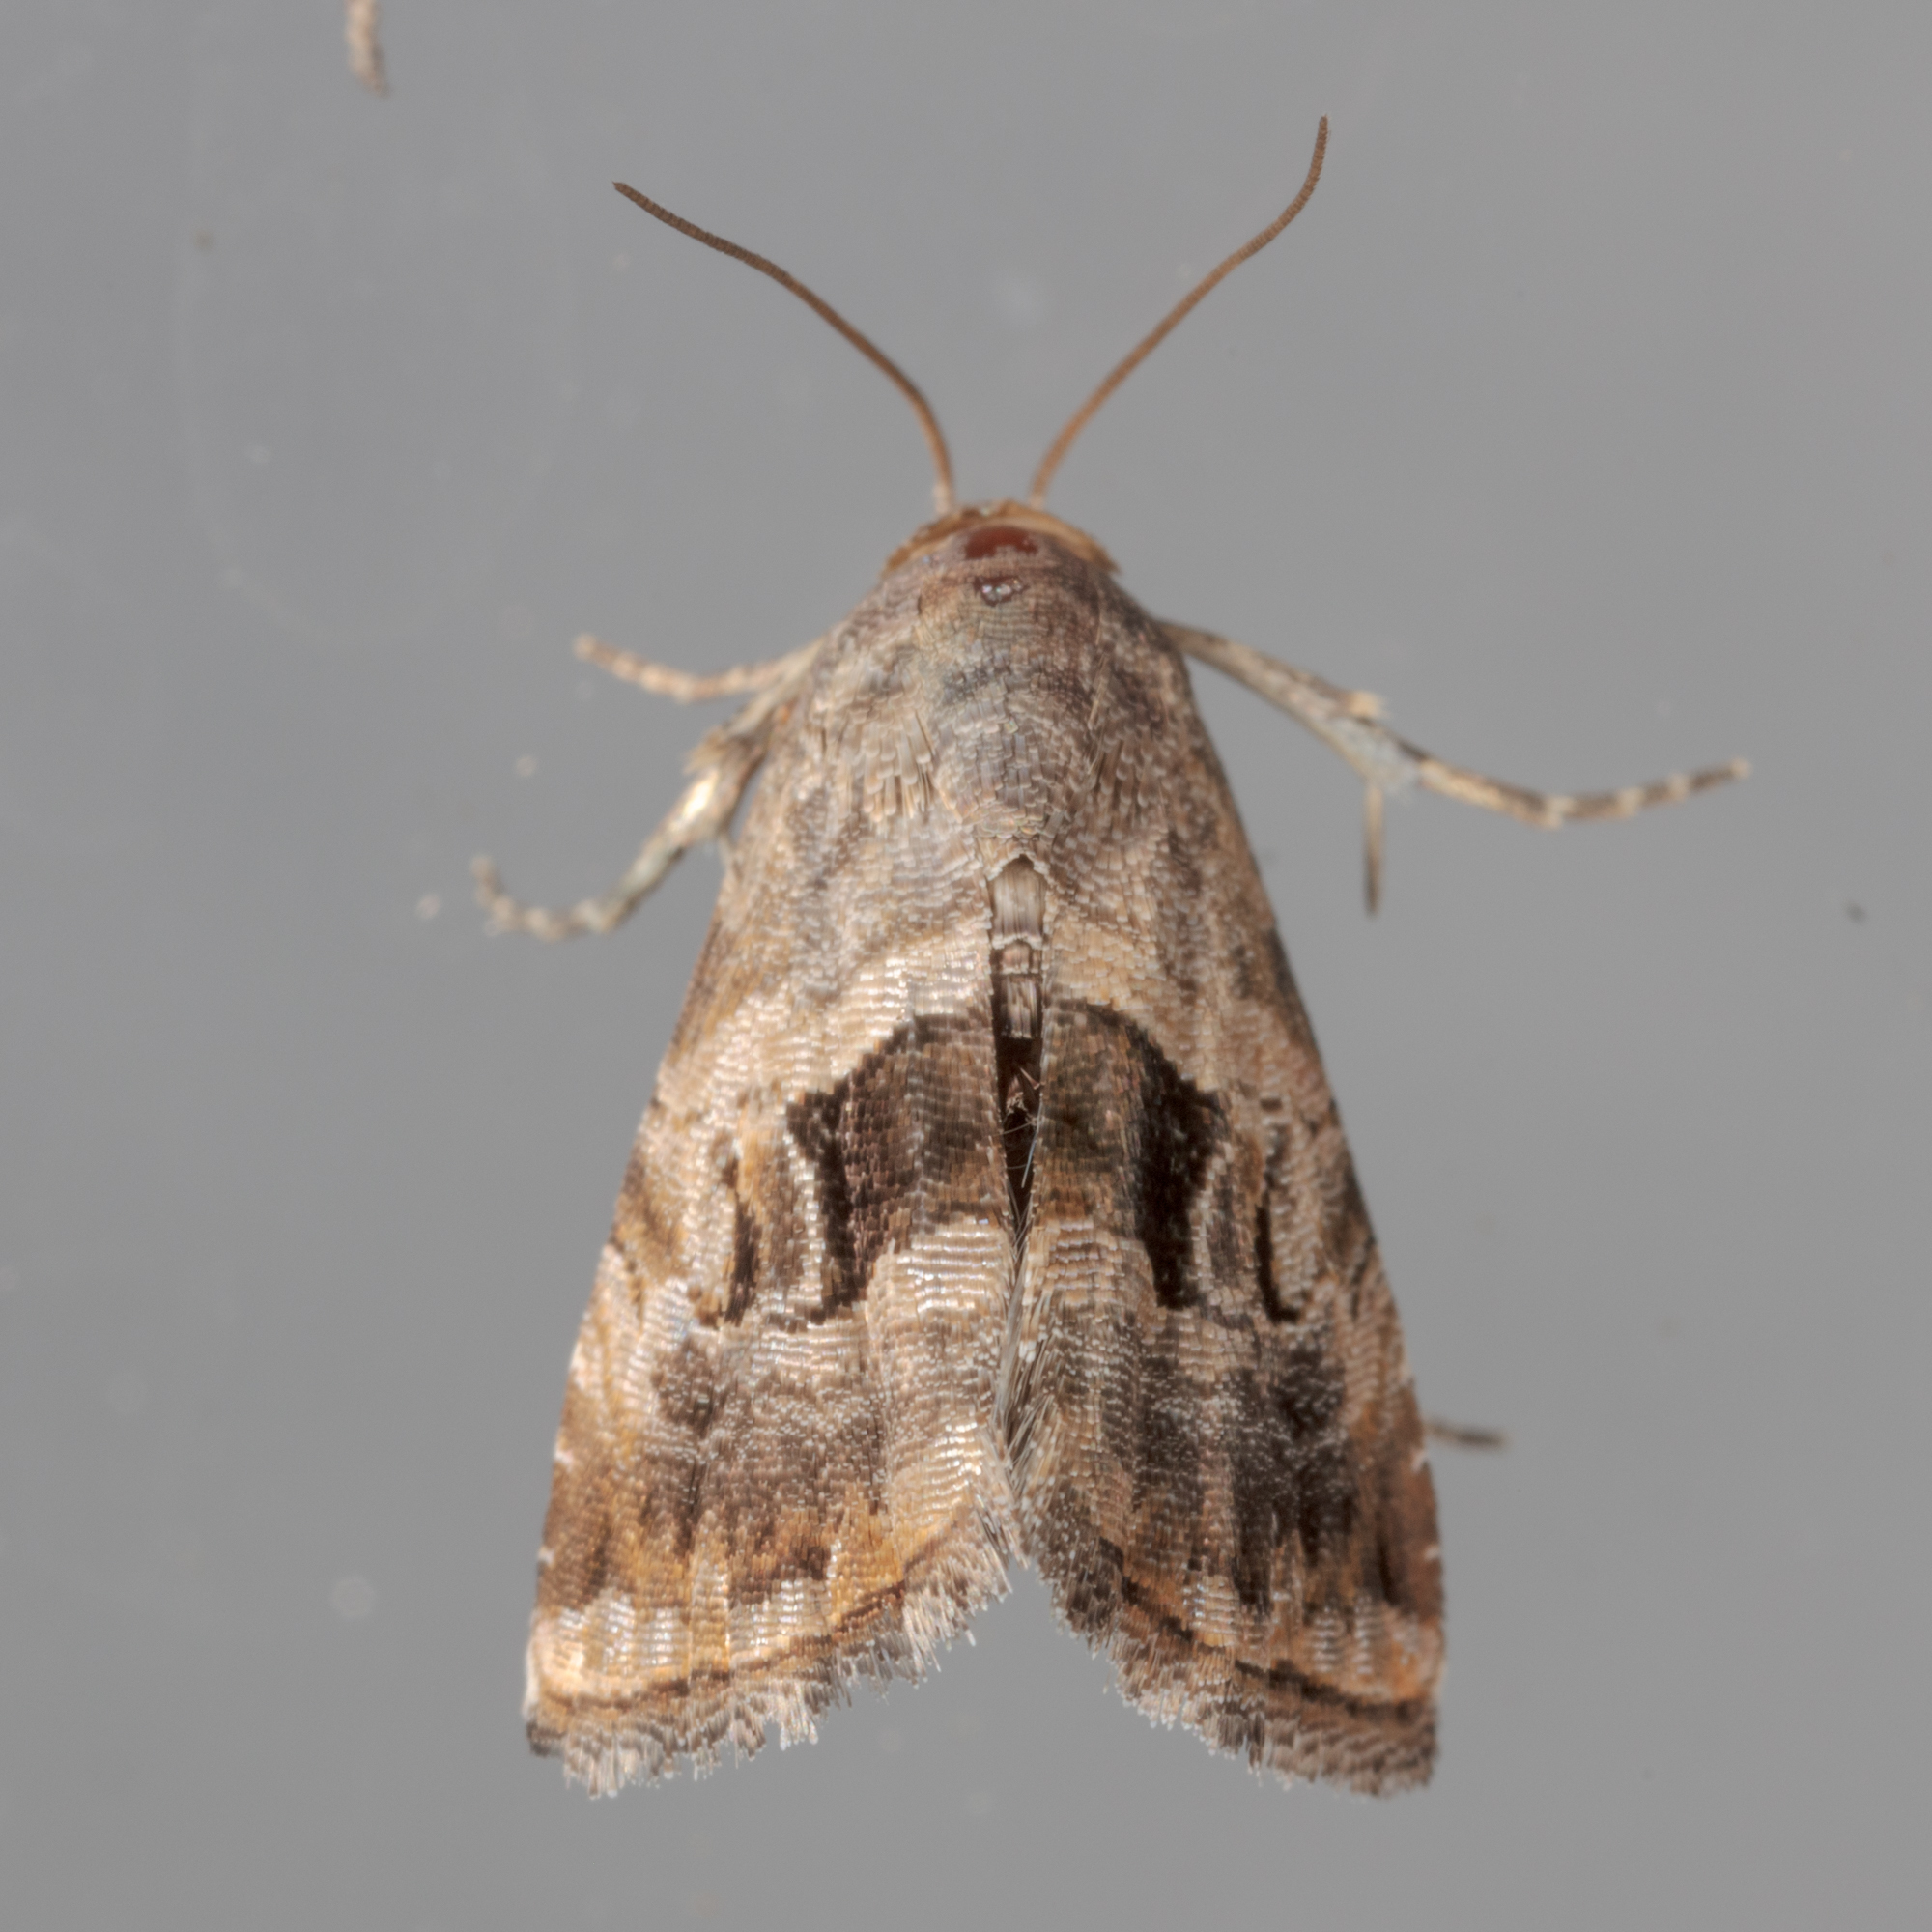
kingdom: Animalia
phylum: Arthropoda
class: Insecta
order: Lepidoptera
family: Noctuidae
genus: Tripudia
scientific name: Tripudia quadrifera
